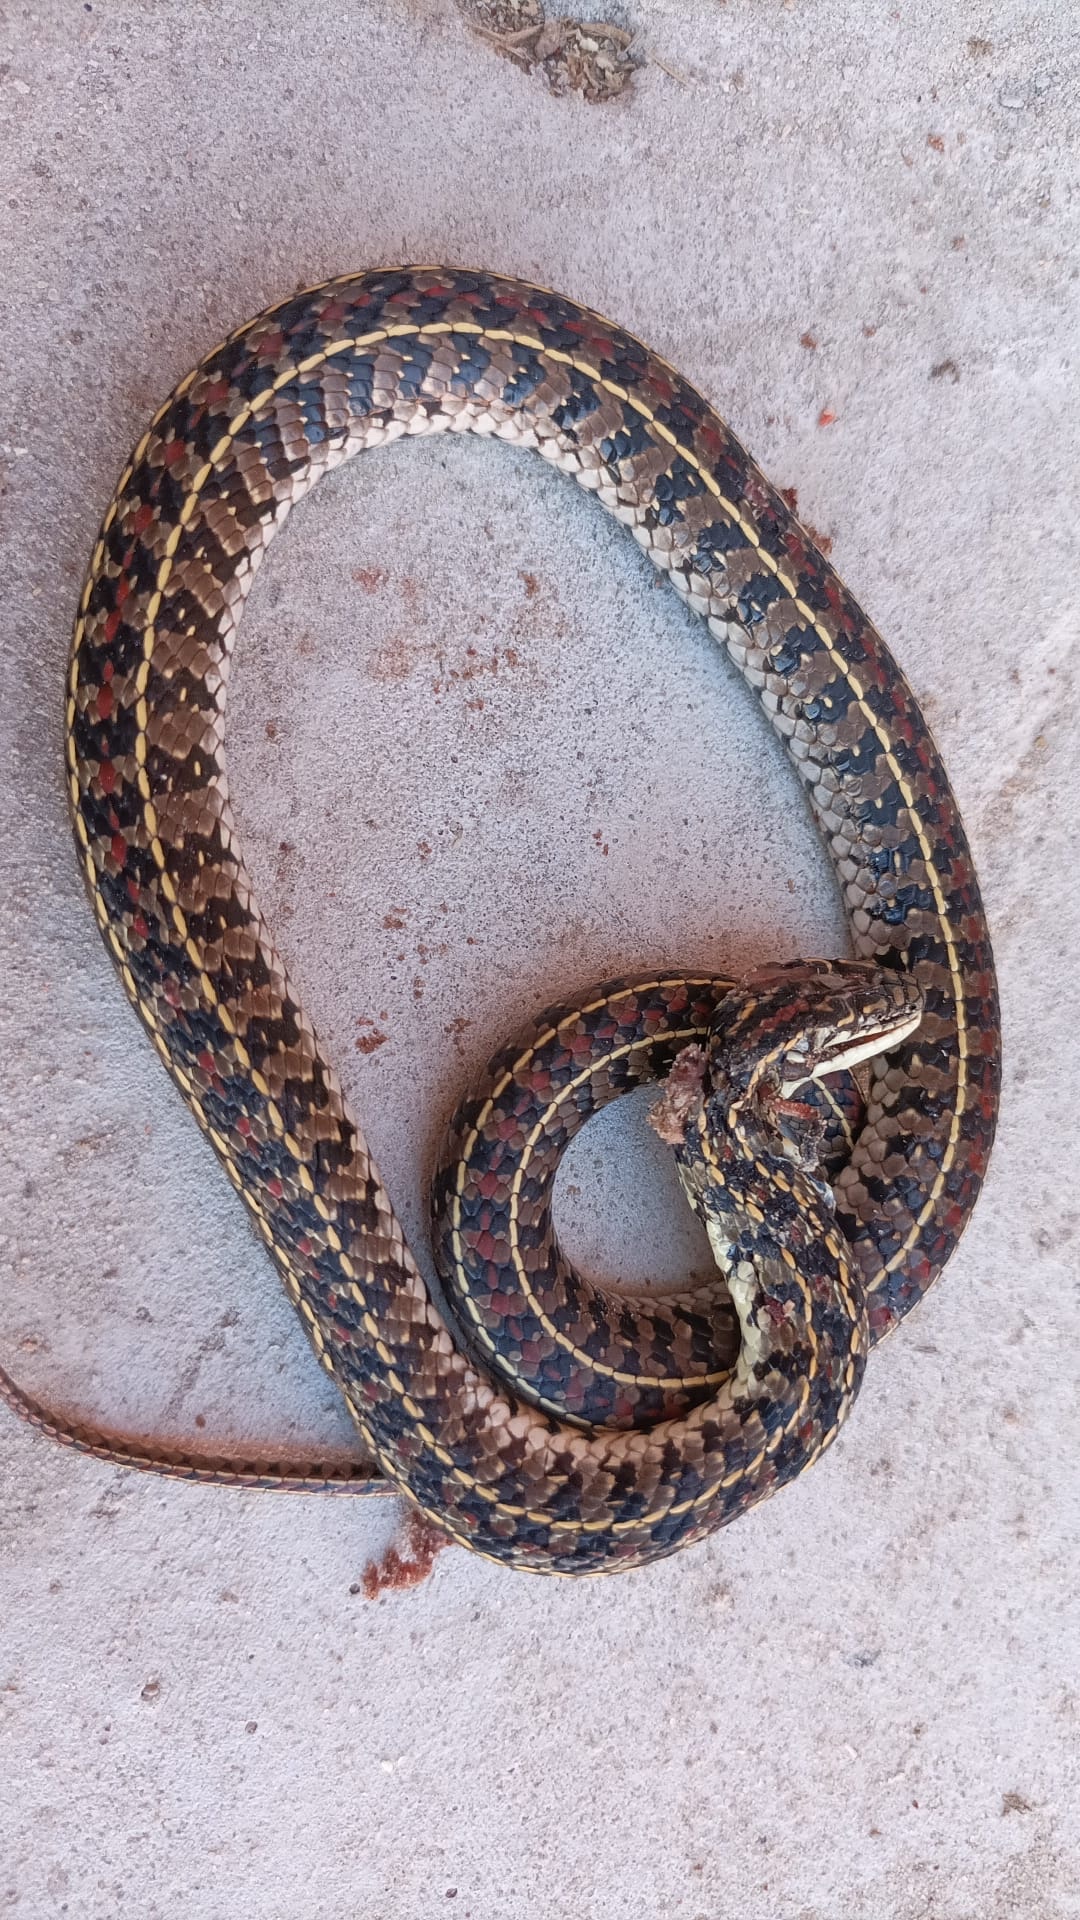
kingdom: Animalia
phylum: Chordata
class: Squamata
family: Colubridae
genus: Lygophis
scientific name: Lygophis anomalus
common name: English common name not available
